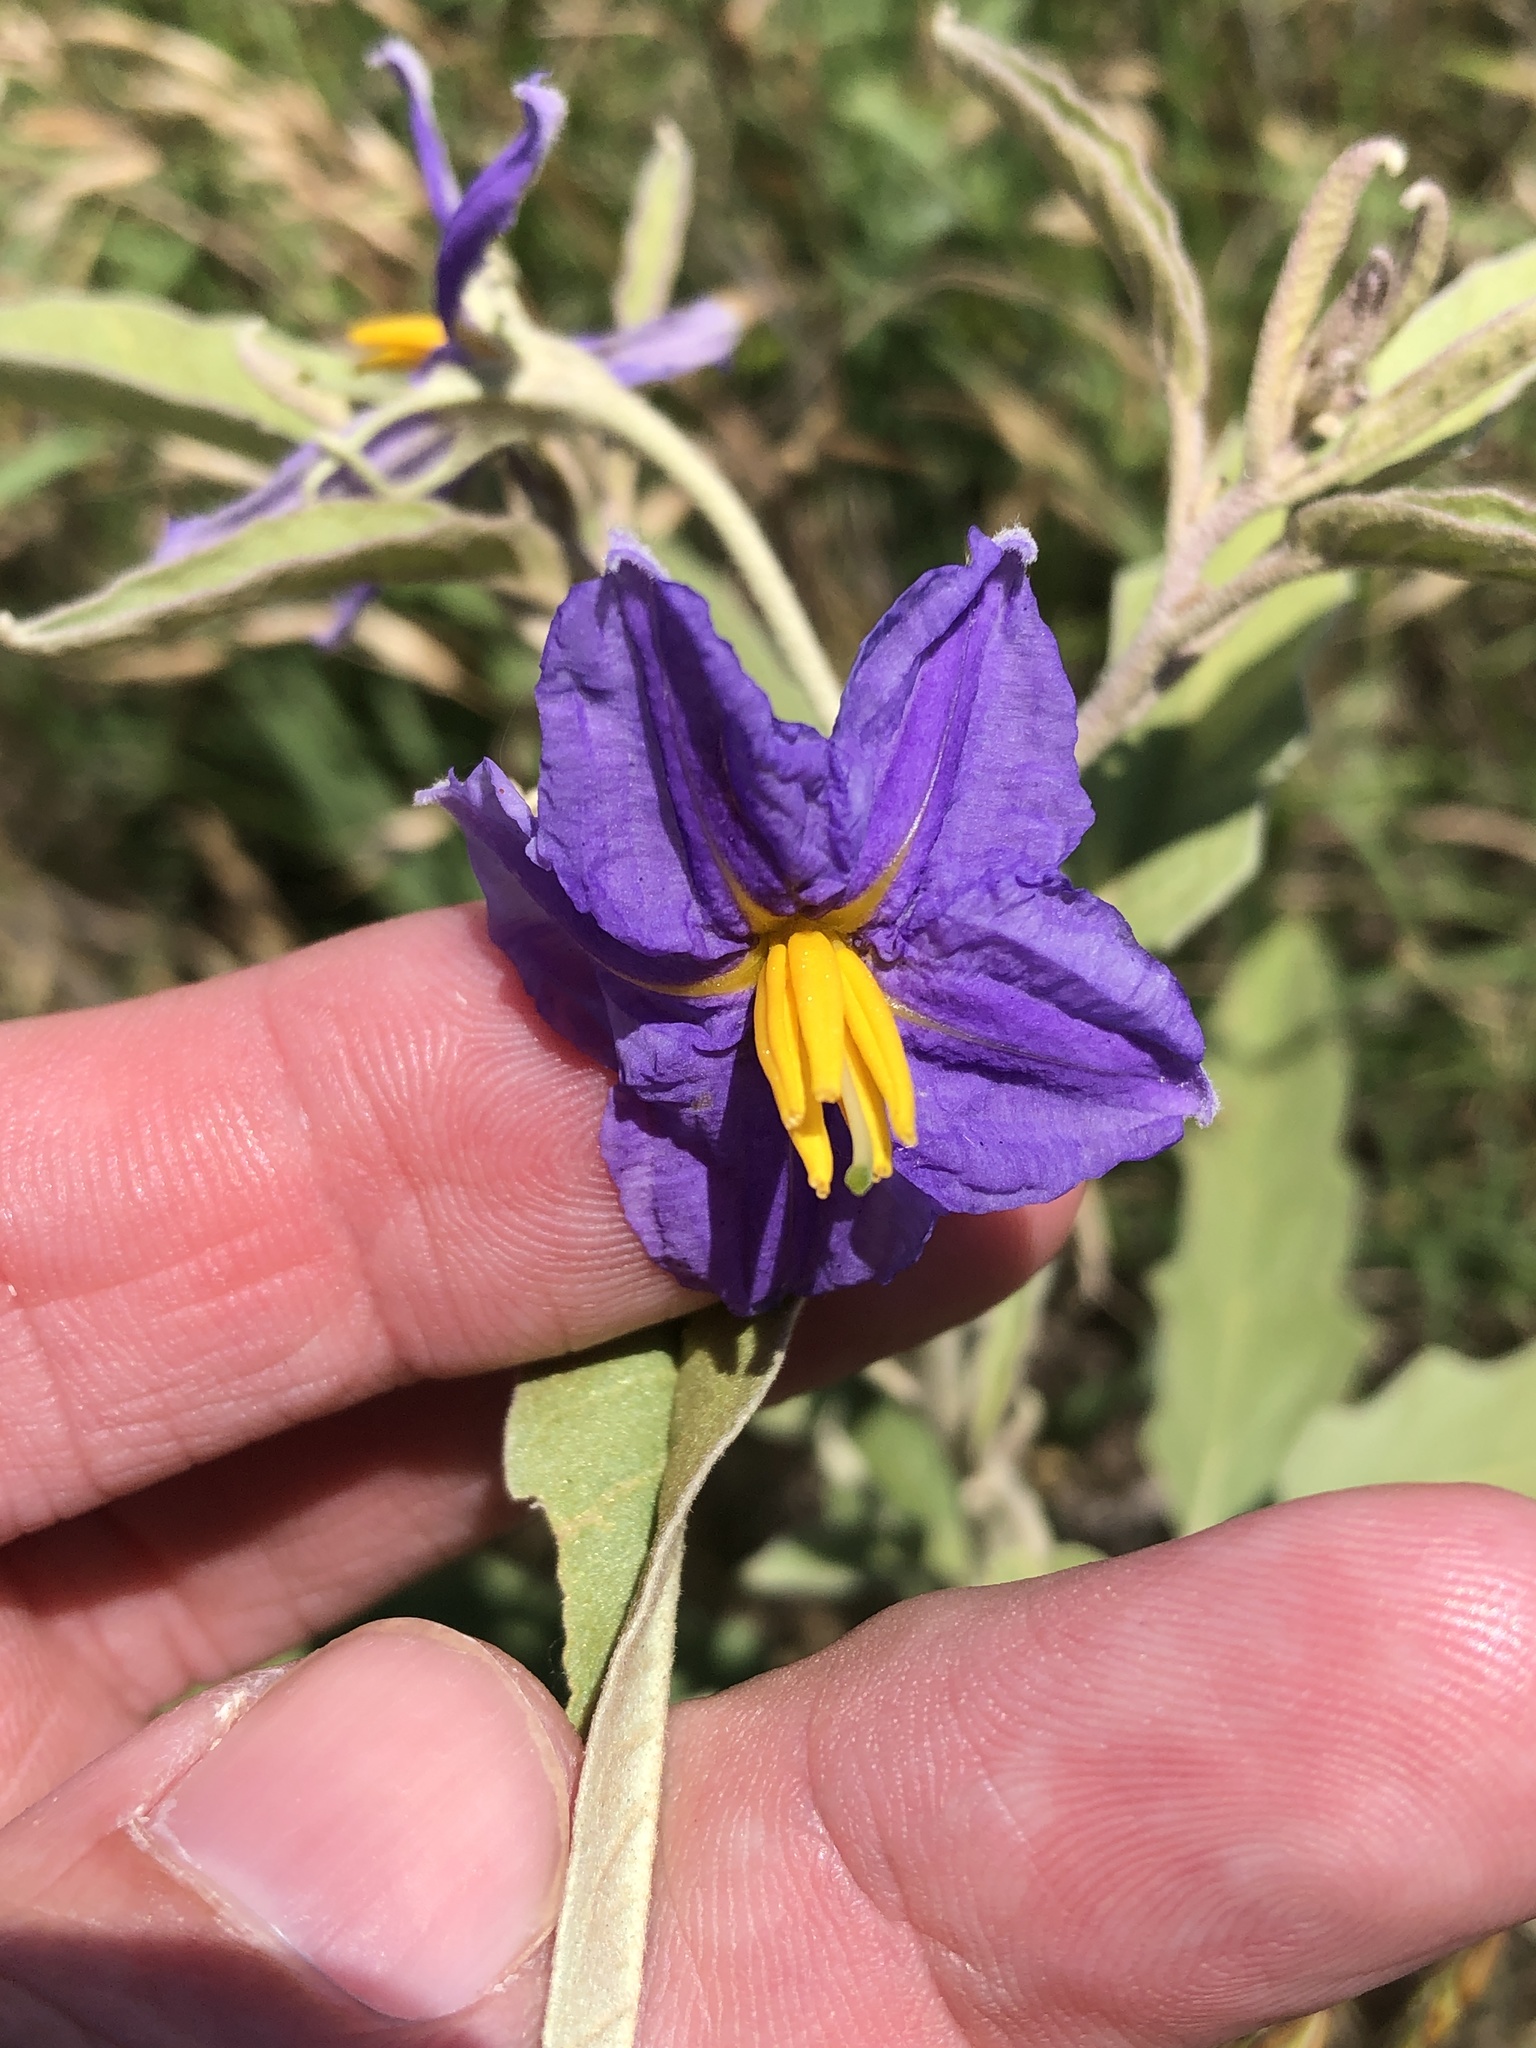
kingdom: Plantae
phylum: Tracheophyta
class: Magnoliopsida
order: Solanales
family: Solanaceae
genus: Solanum
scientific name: Solanum elaeagnifolium
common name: Silverleaf nightshade
